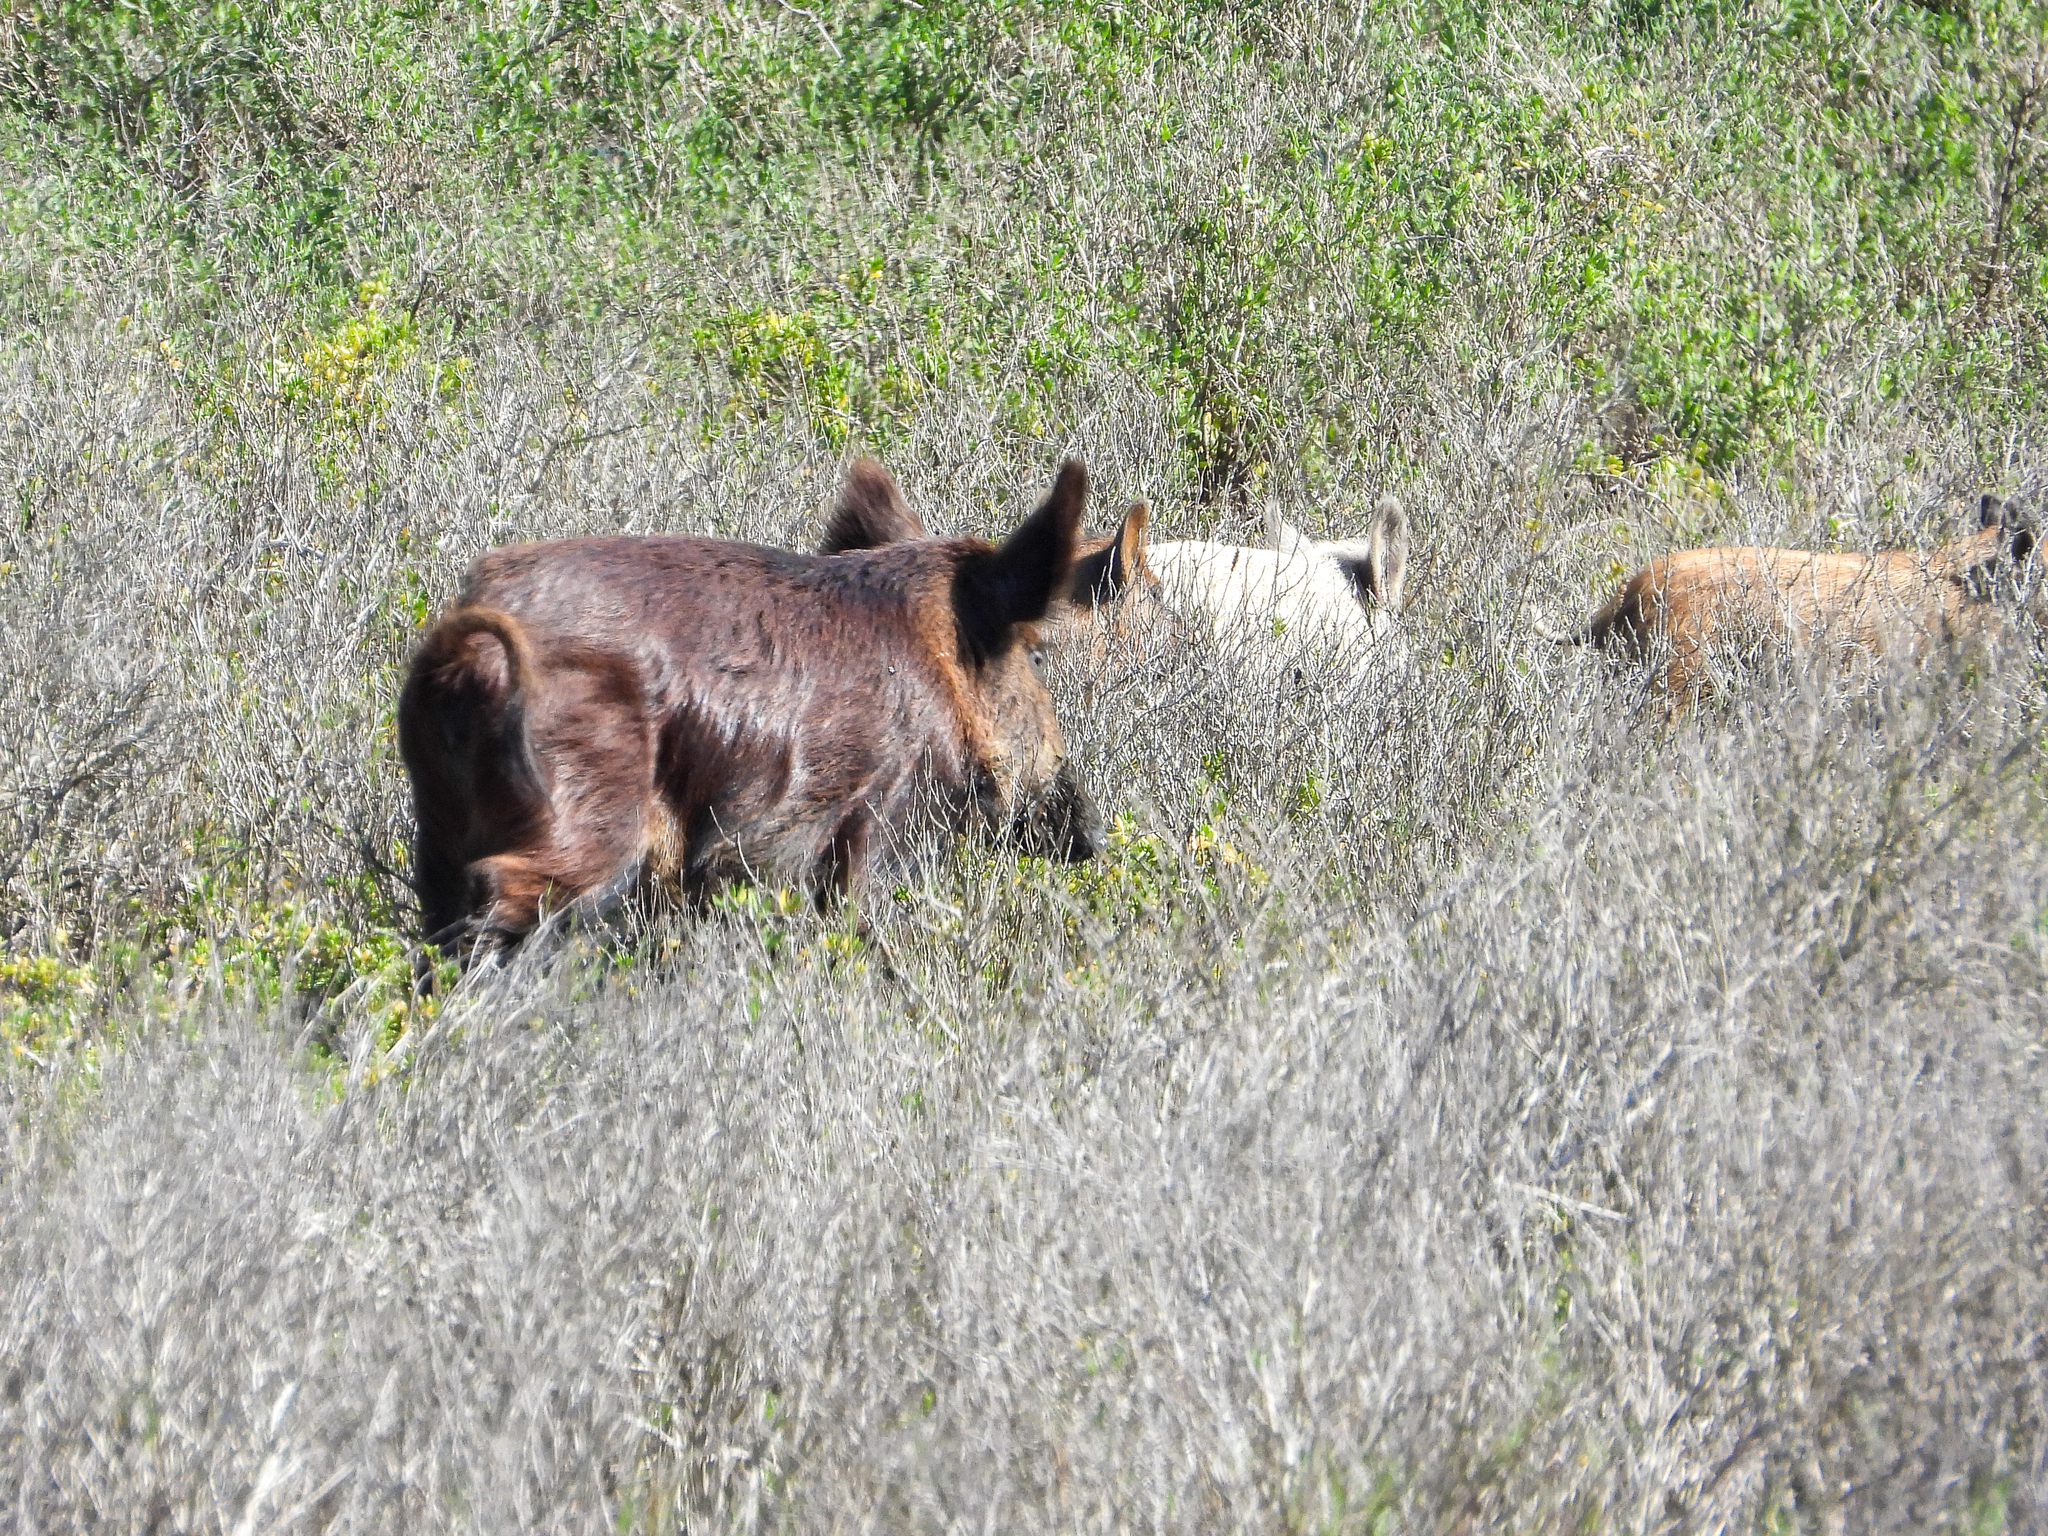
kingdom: Animalia
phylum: Chordata
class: Mammalia
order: Artiodactyla
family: Suidae
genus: Sus
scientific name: Sus scrofa
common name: Wild boar
